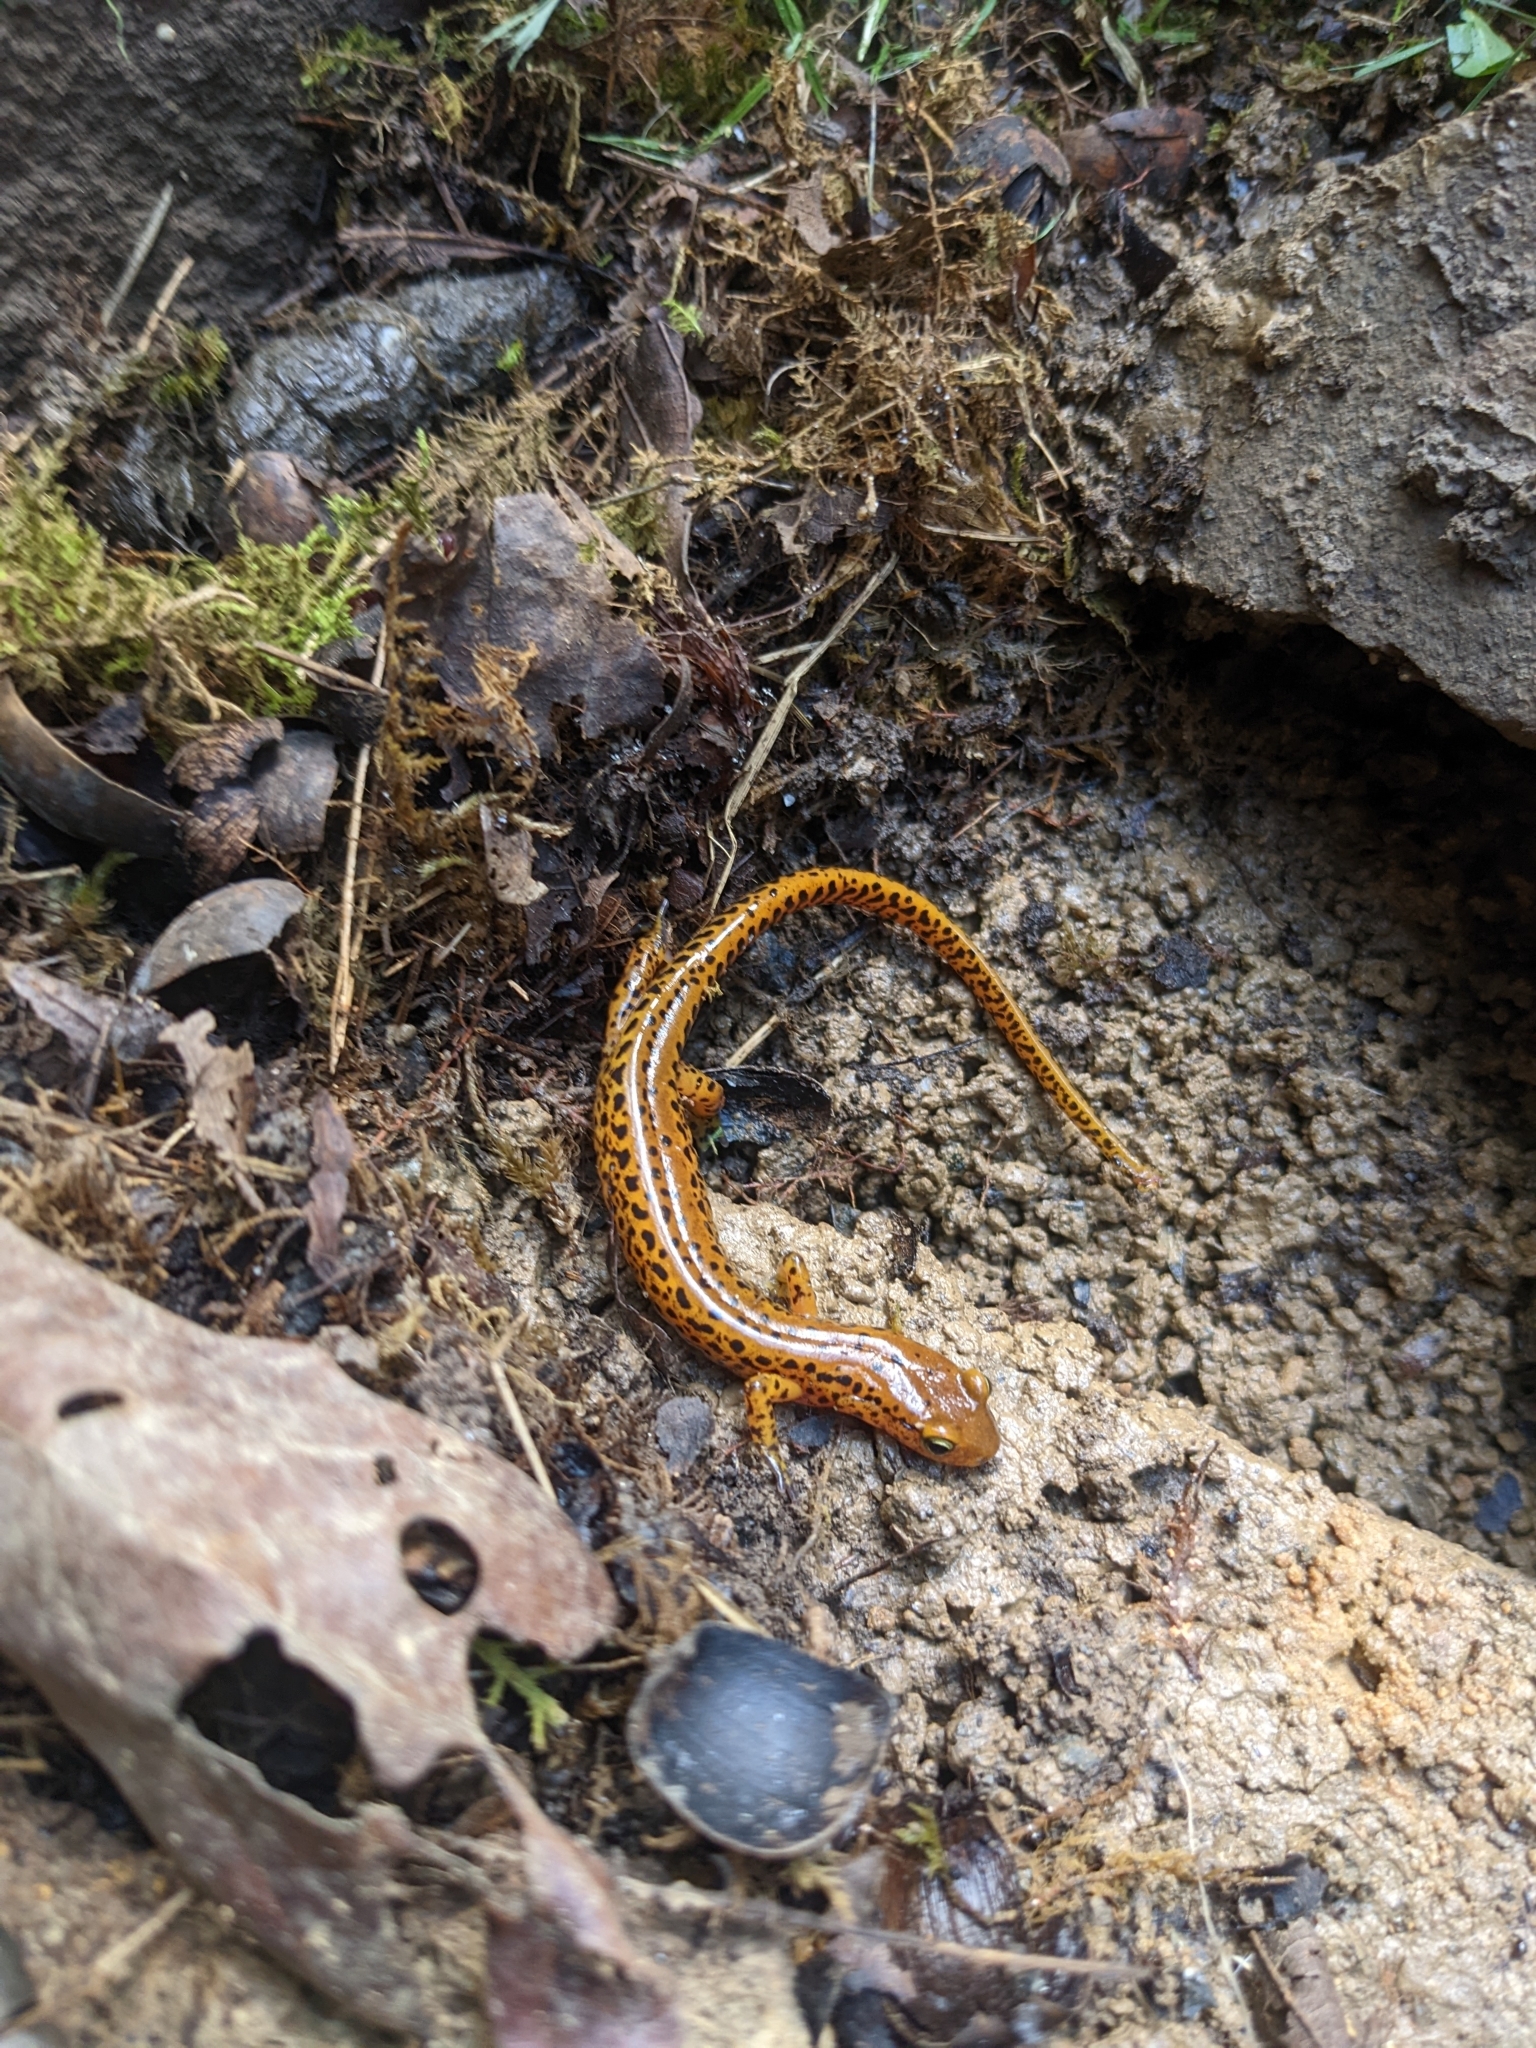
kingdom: Animalia
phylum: Chordata
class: Amphibia
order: Caudata
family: Plethodontidae
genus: Eurycea
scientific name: Eurycea longicauda
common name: Long-tailed salamander
